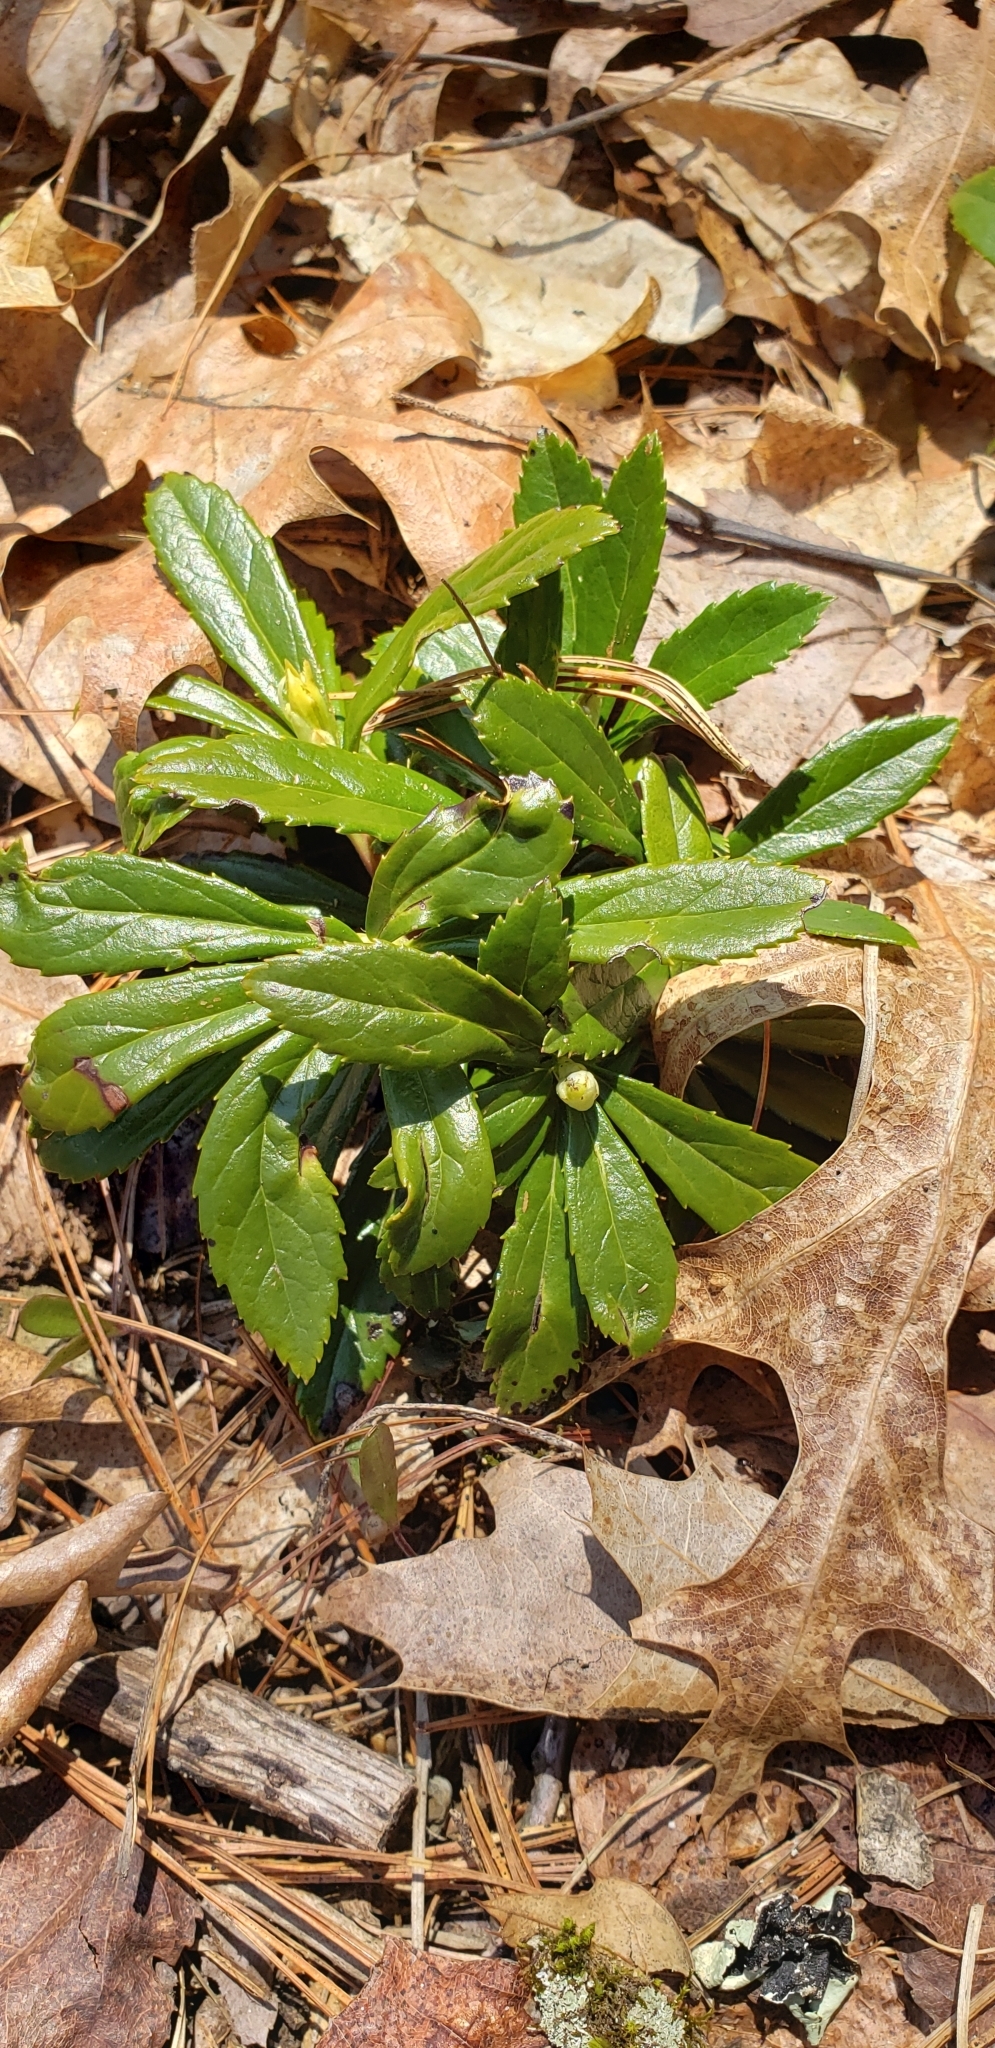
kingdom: Plantae
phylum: Tracheophyta
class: Magnoliopsida
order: Ericales
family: Ericaceae
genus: Chimaphila
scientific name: Chimaphila umbellata
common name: Pipsissewa
